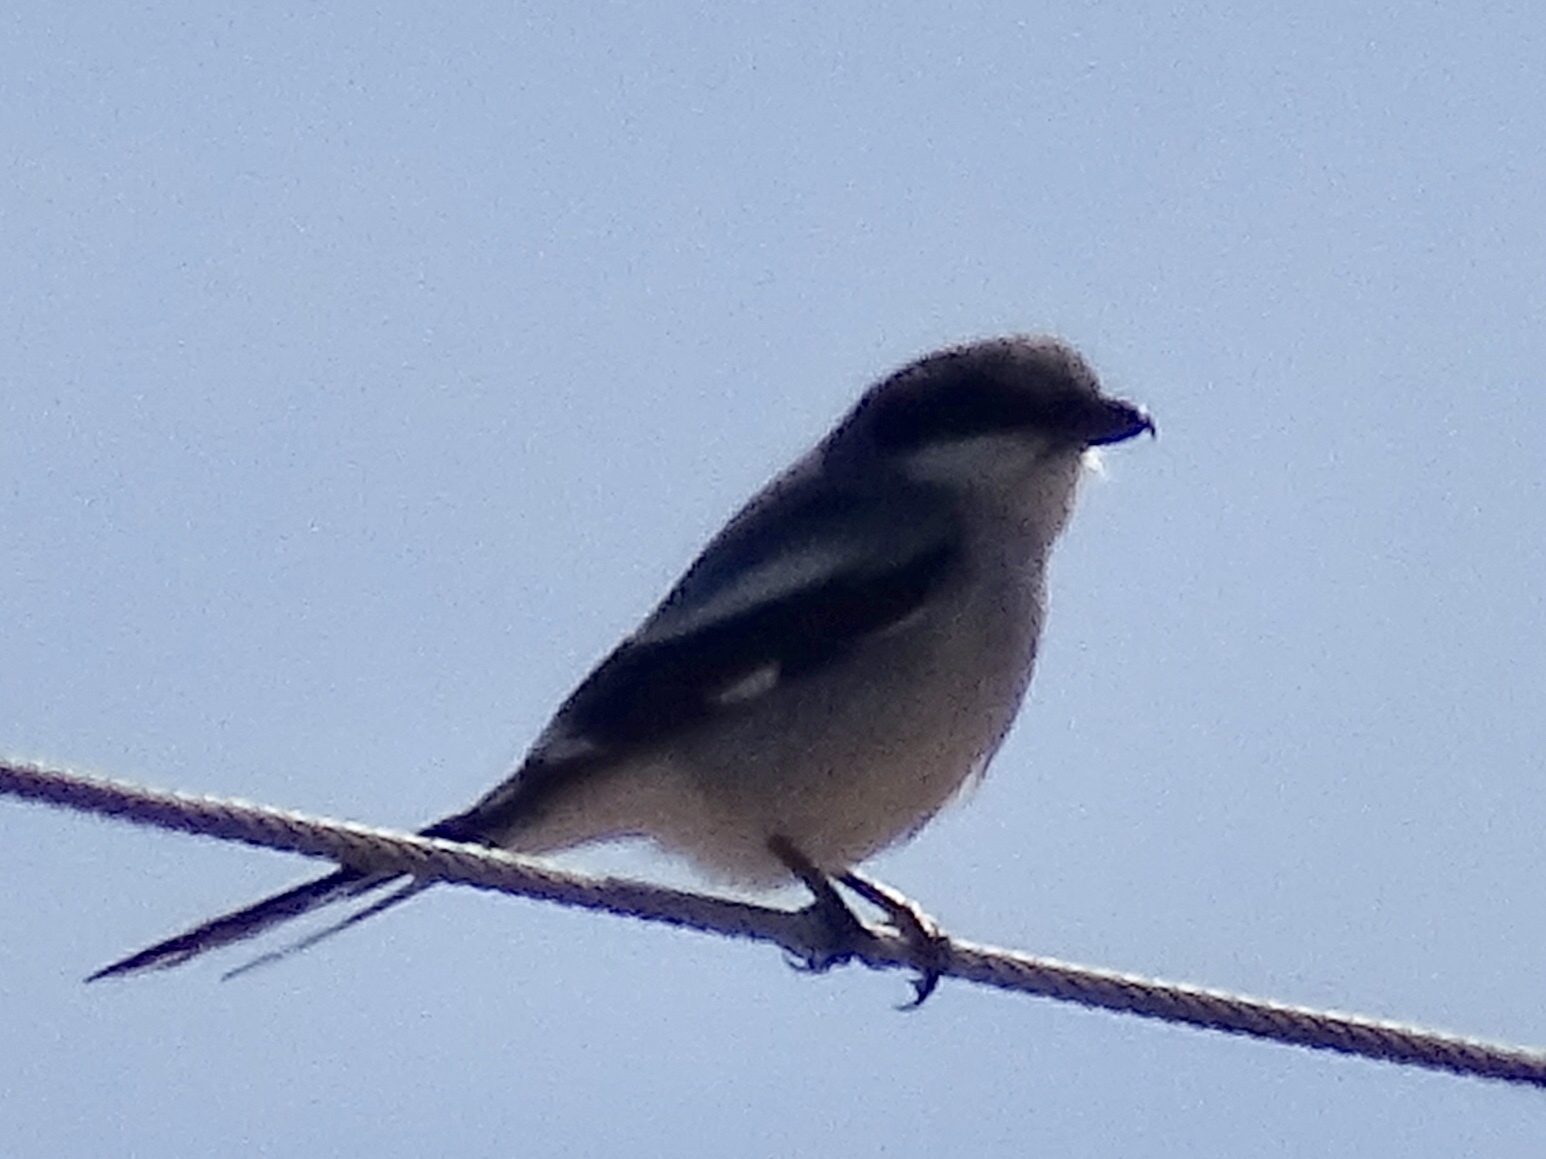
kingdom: Animalia
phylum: Chordata
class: Aves
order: Passeriformes
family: Laniidae
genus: Lanius
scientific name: Lanius ludovicianus
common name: Loggerhead shrike
